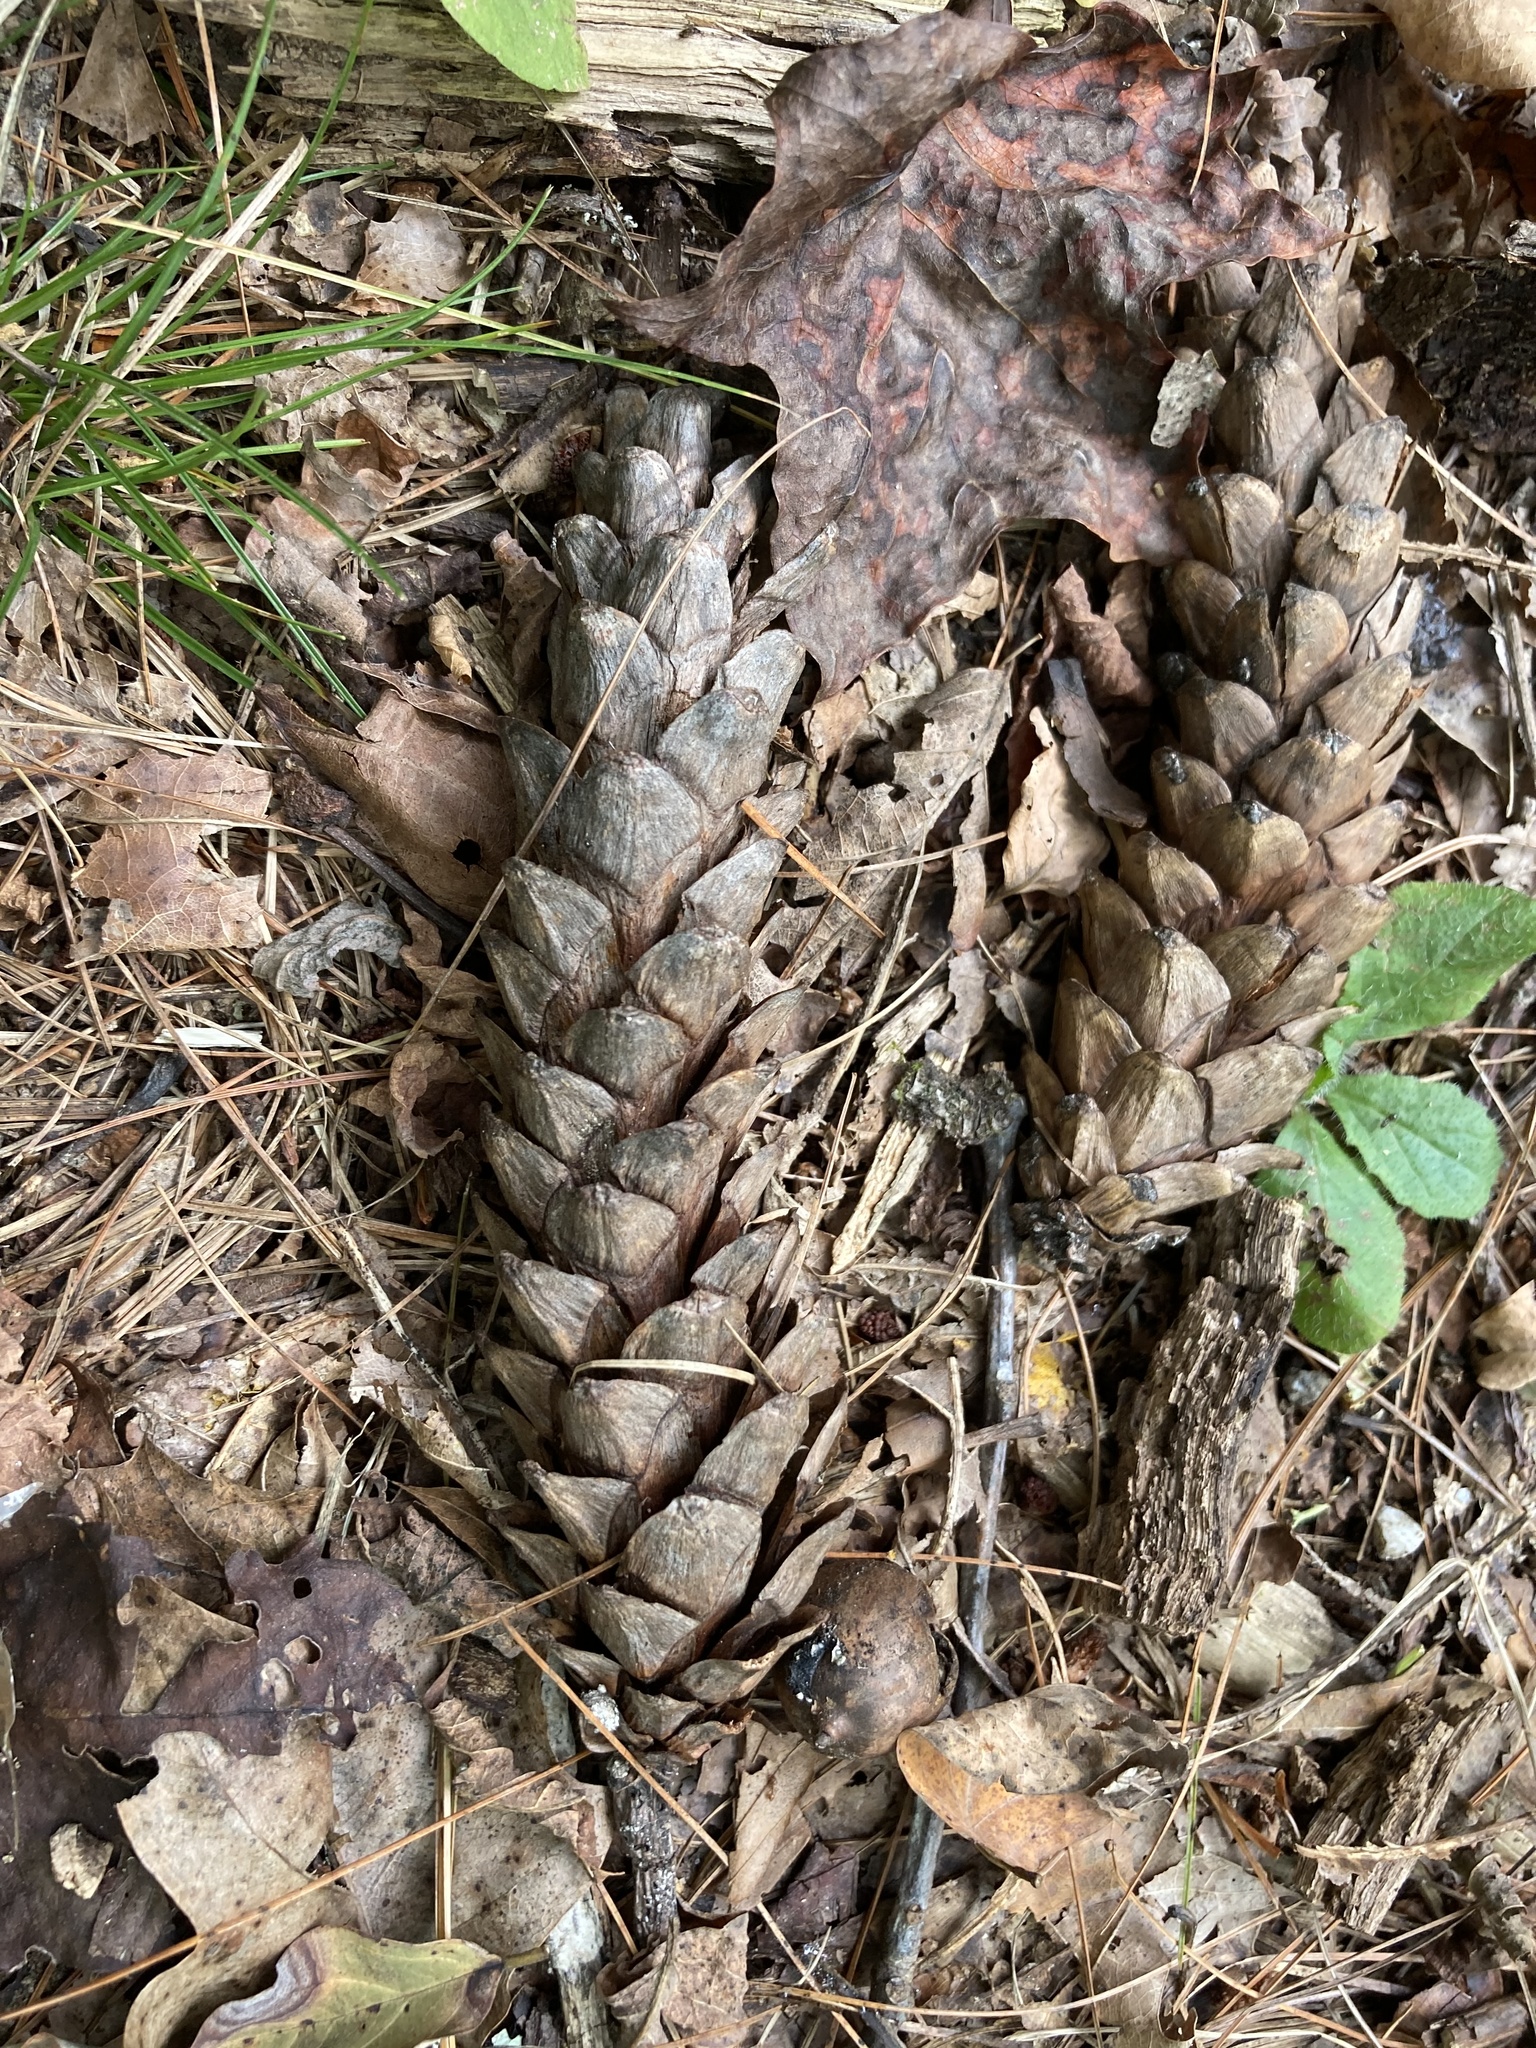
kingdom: Plantae
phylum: Tracheophyta
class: Pinopsida
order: Pinales
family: Pinaceae
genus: Pinus
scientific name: Pinus strobus
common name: Weymouth pine
